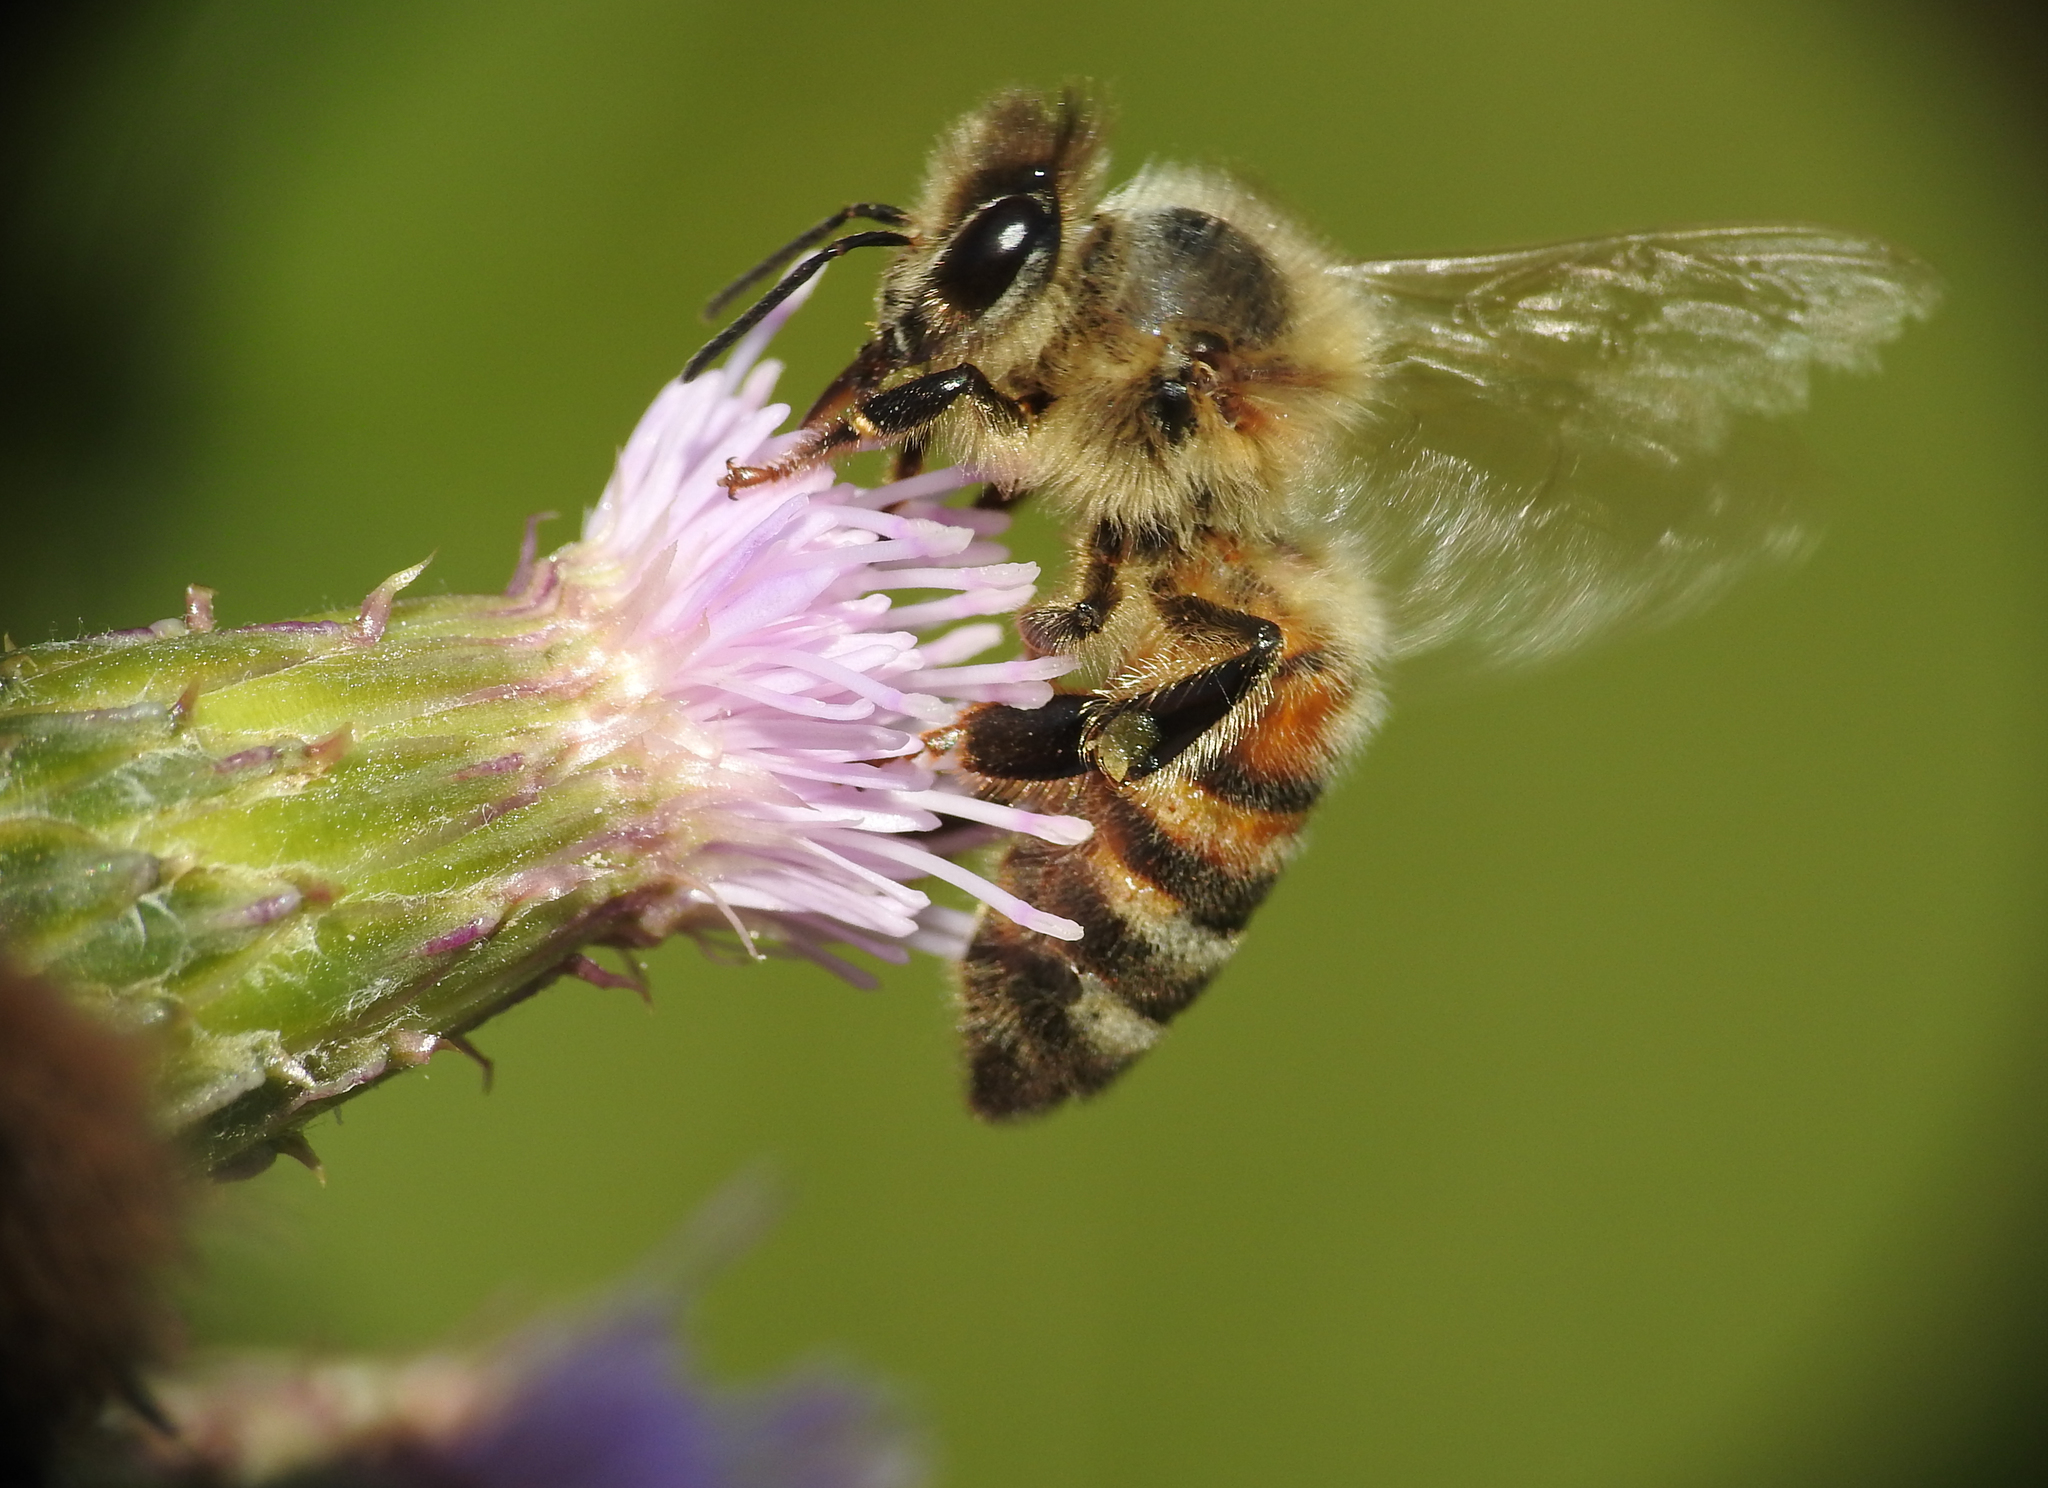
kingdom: Animalia
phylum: Arthropoda
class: Insecta
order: Hymenoptera
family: Apidae
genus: Apis
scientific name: Apis mellifera
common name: Honey bee
